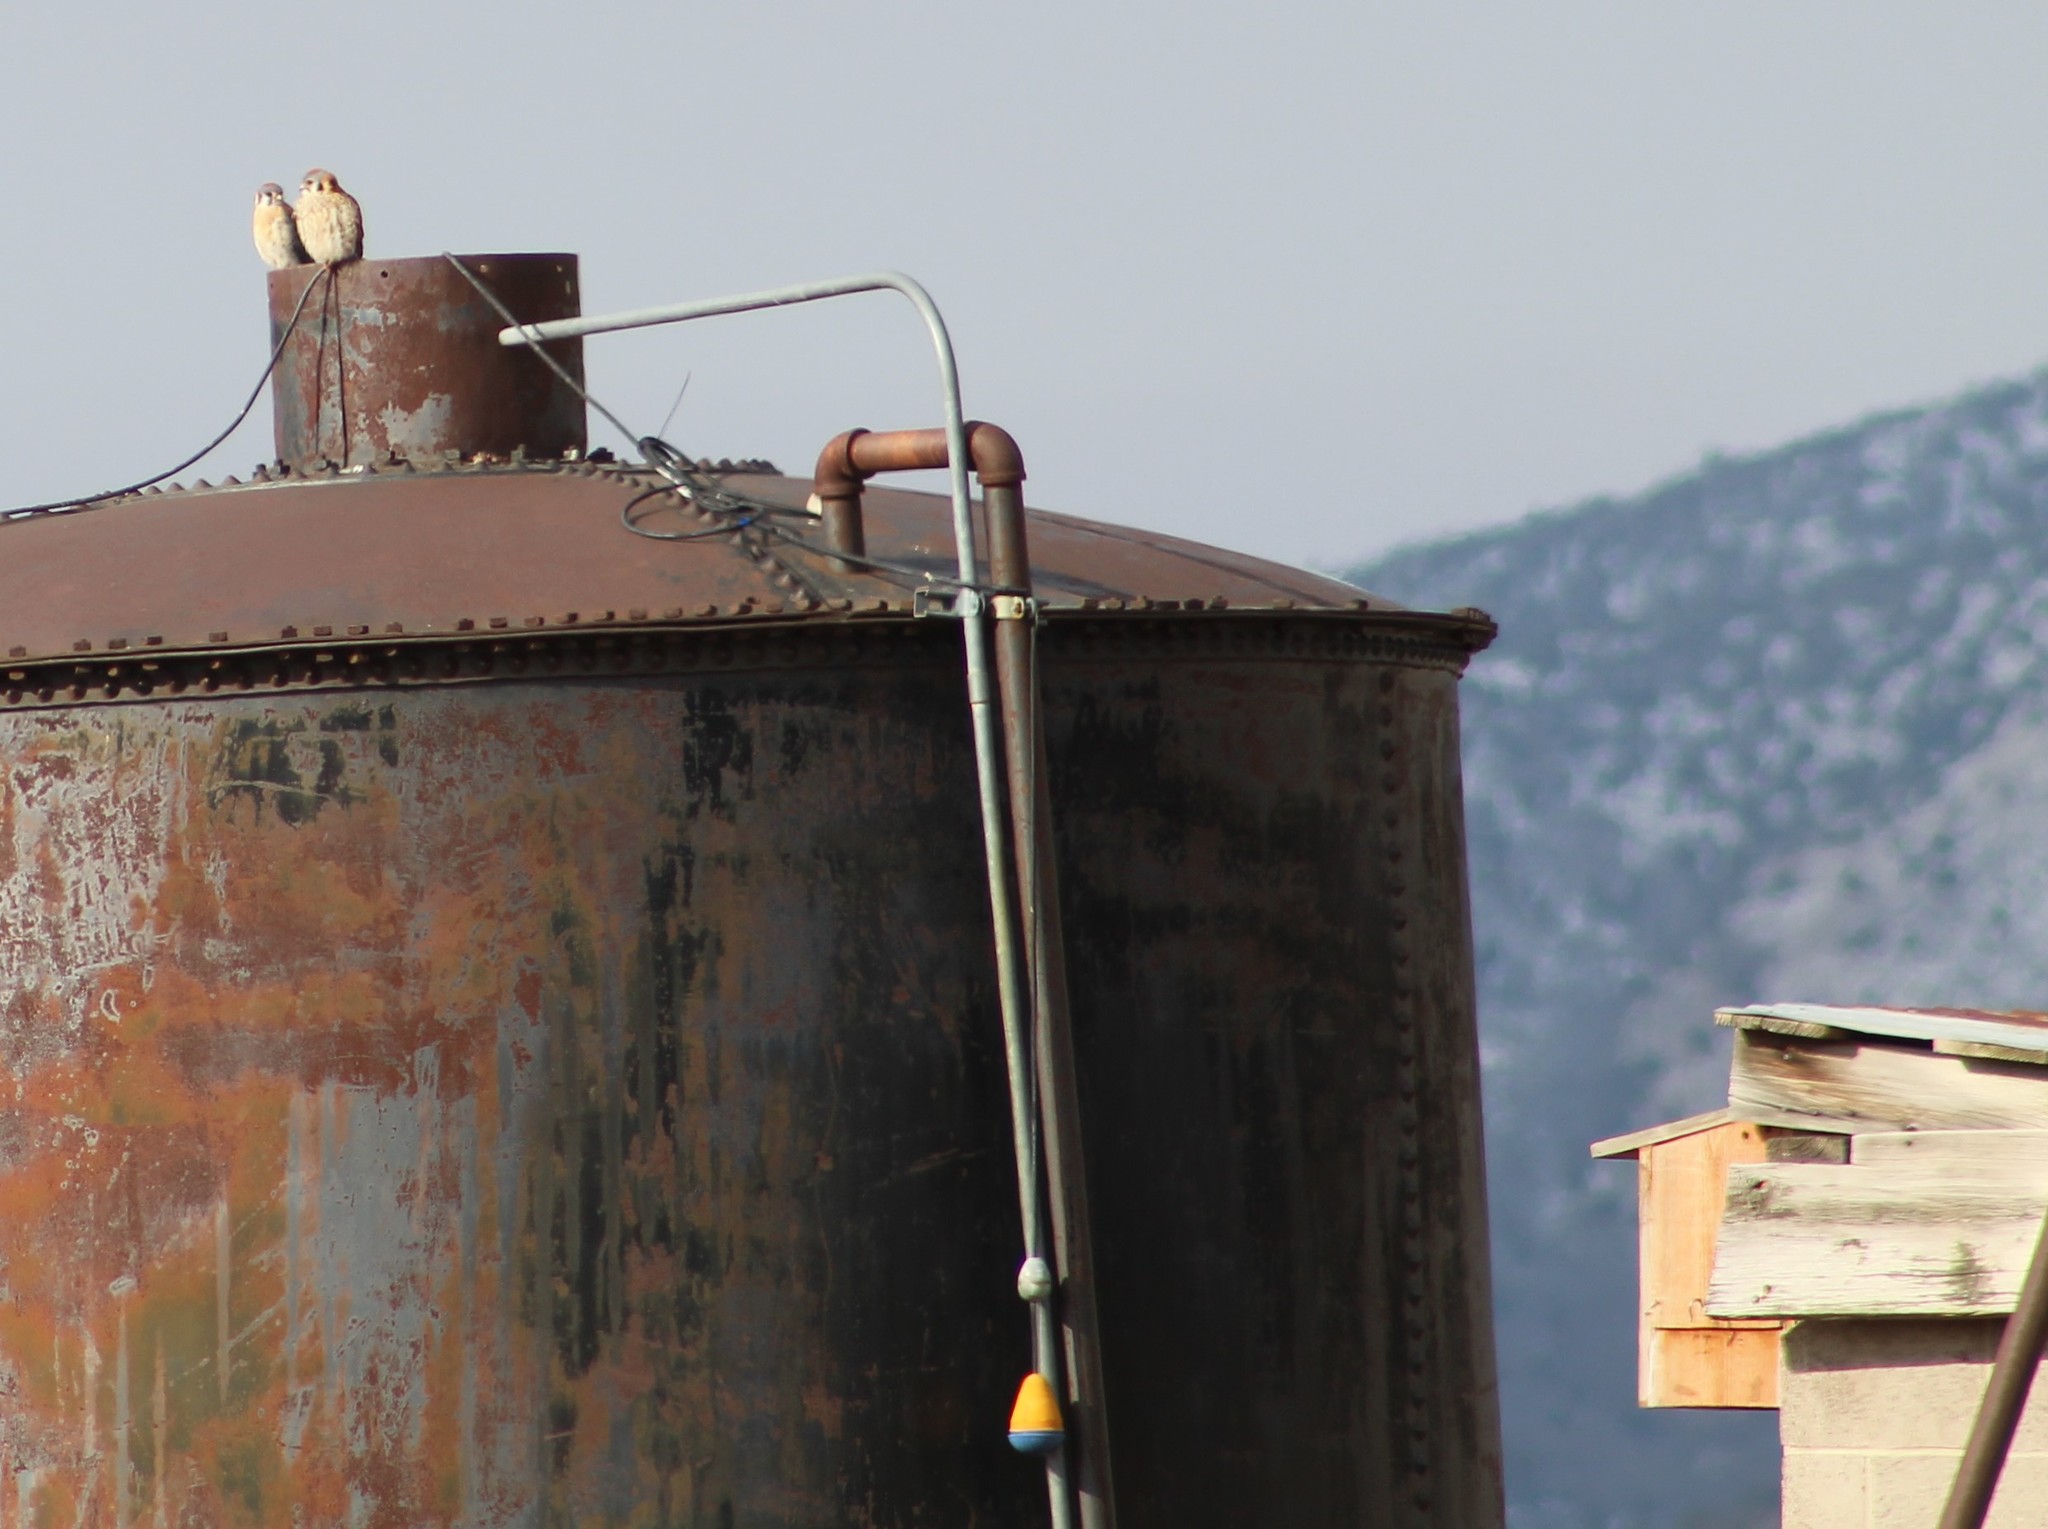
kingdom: Animalia
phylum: Chordata
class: Aves
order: Falconiformes
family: Falconidae
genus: Falco
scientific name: Falco sparverius
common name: American kestrel
